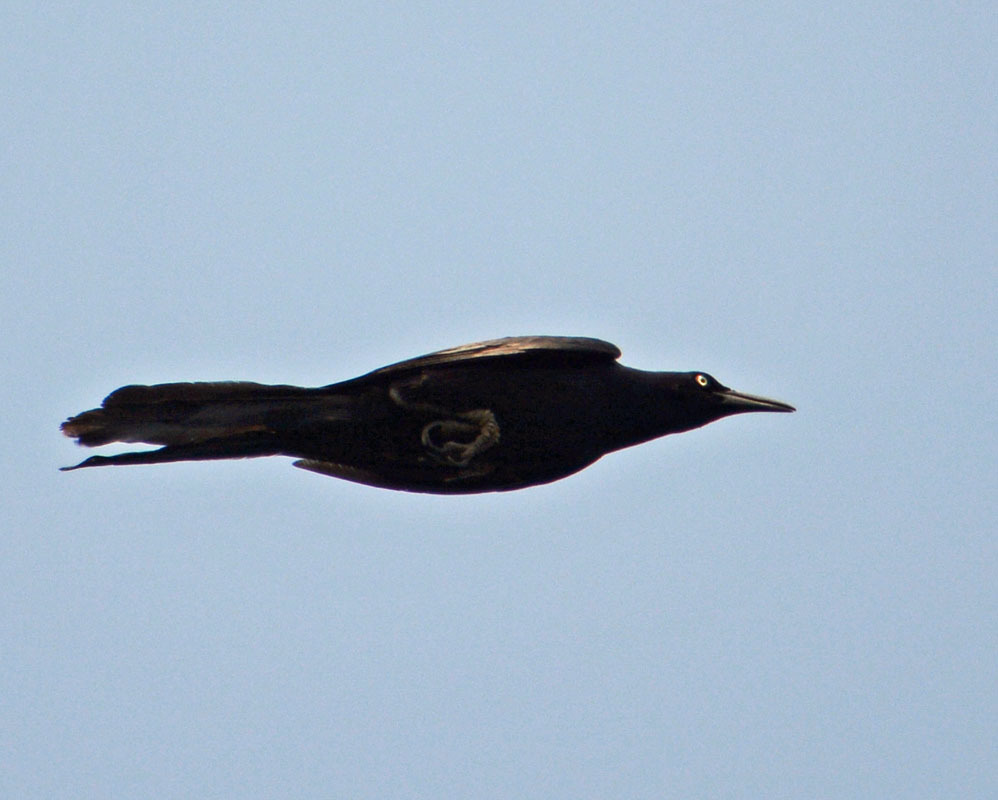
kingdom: Animalia
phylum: Chordata
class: Aves
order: Passeriformes
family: Icteridae
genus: Quiscalus
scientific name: Quiscalus mexicanus
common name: Great-tailed grackle
